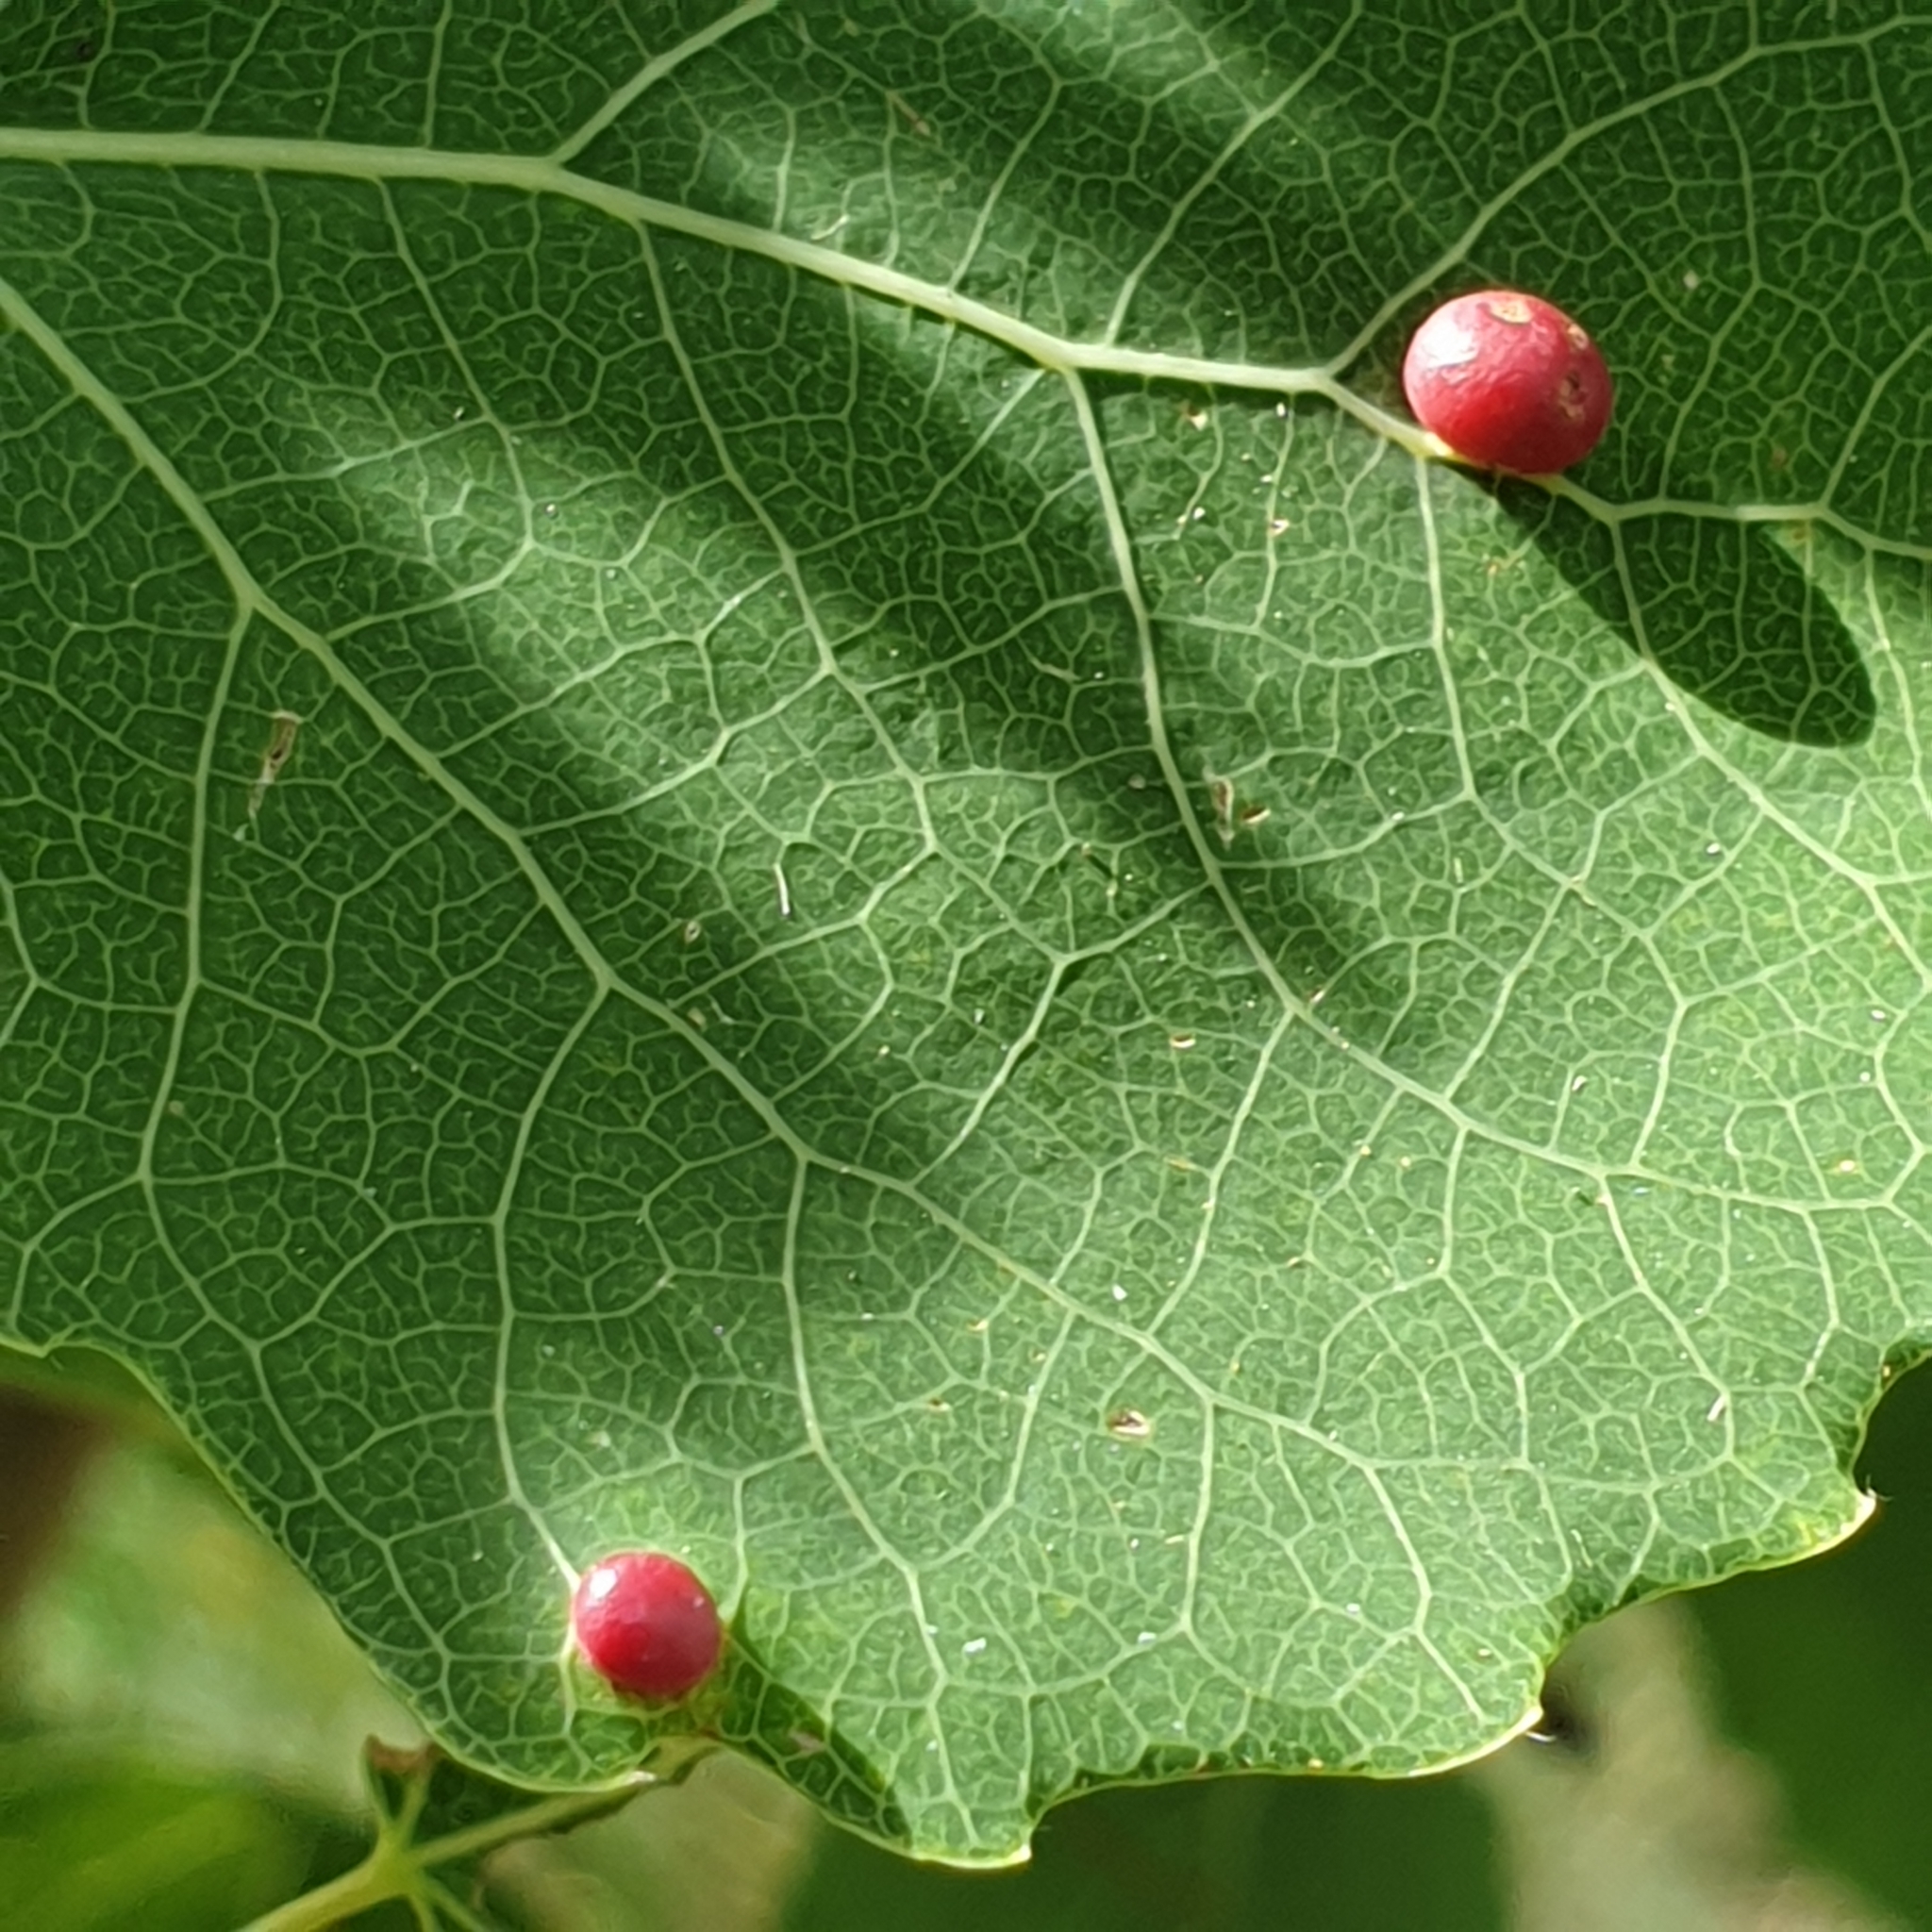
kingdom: Animalia
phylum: Arthropoda
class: Insecta
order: Diptera
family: Cecidomyiidae
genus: Harmandiola
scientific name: Harmandiola tremulae
